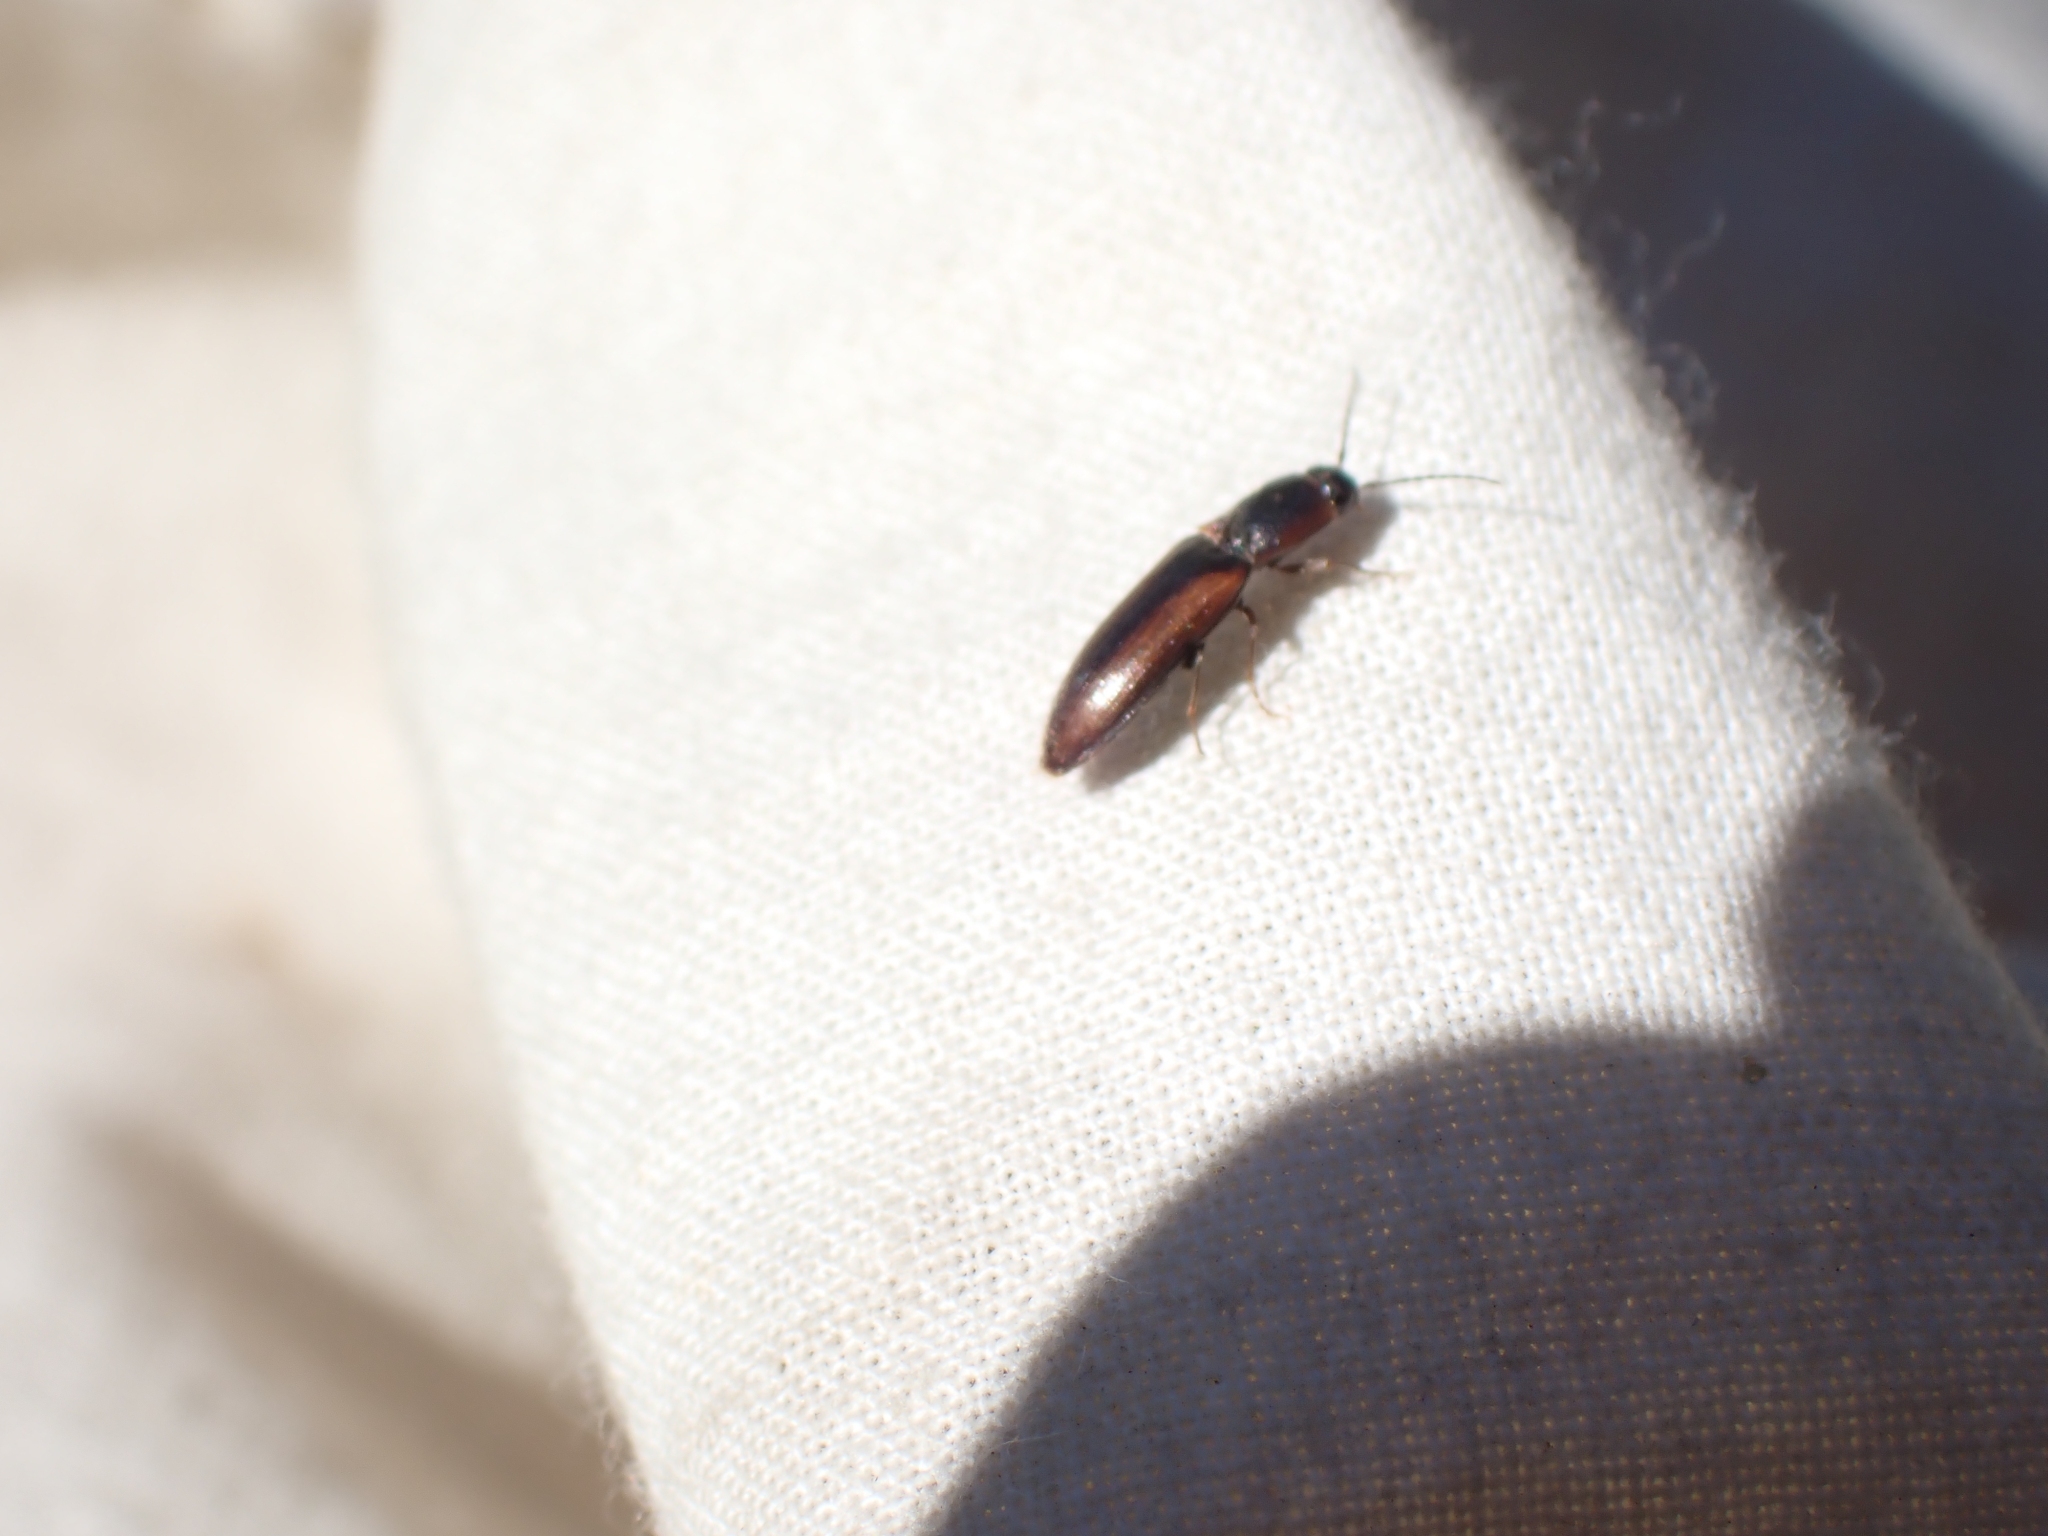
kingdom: Animalia
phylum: Arthropoda
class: Insecta
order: Coleoptera
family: Elateridae
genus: Athous
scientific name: Athous vittiger
